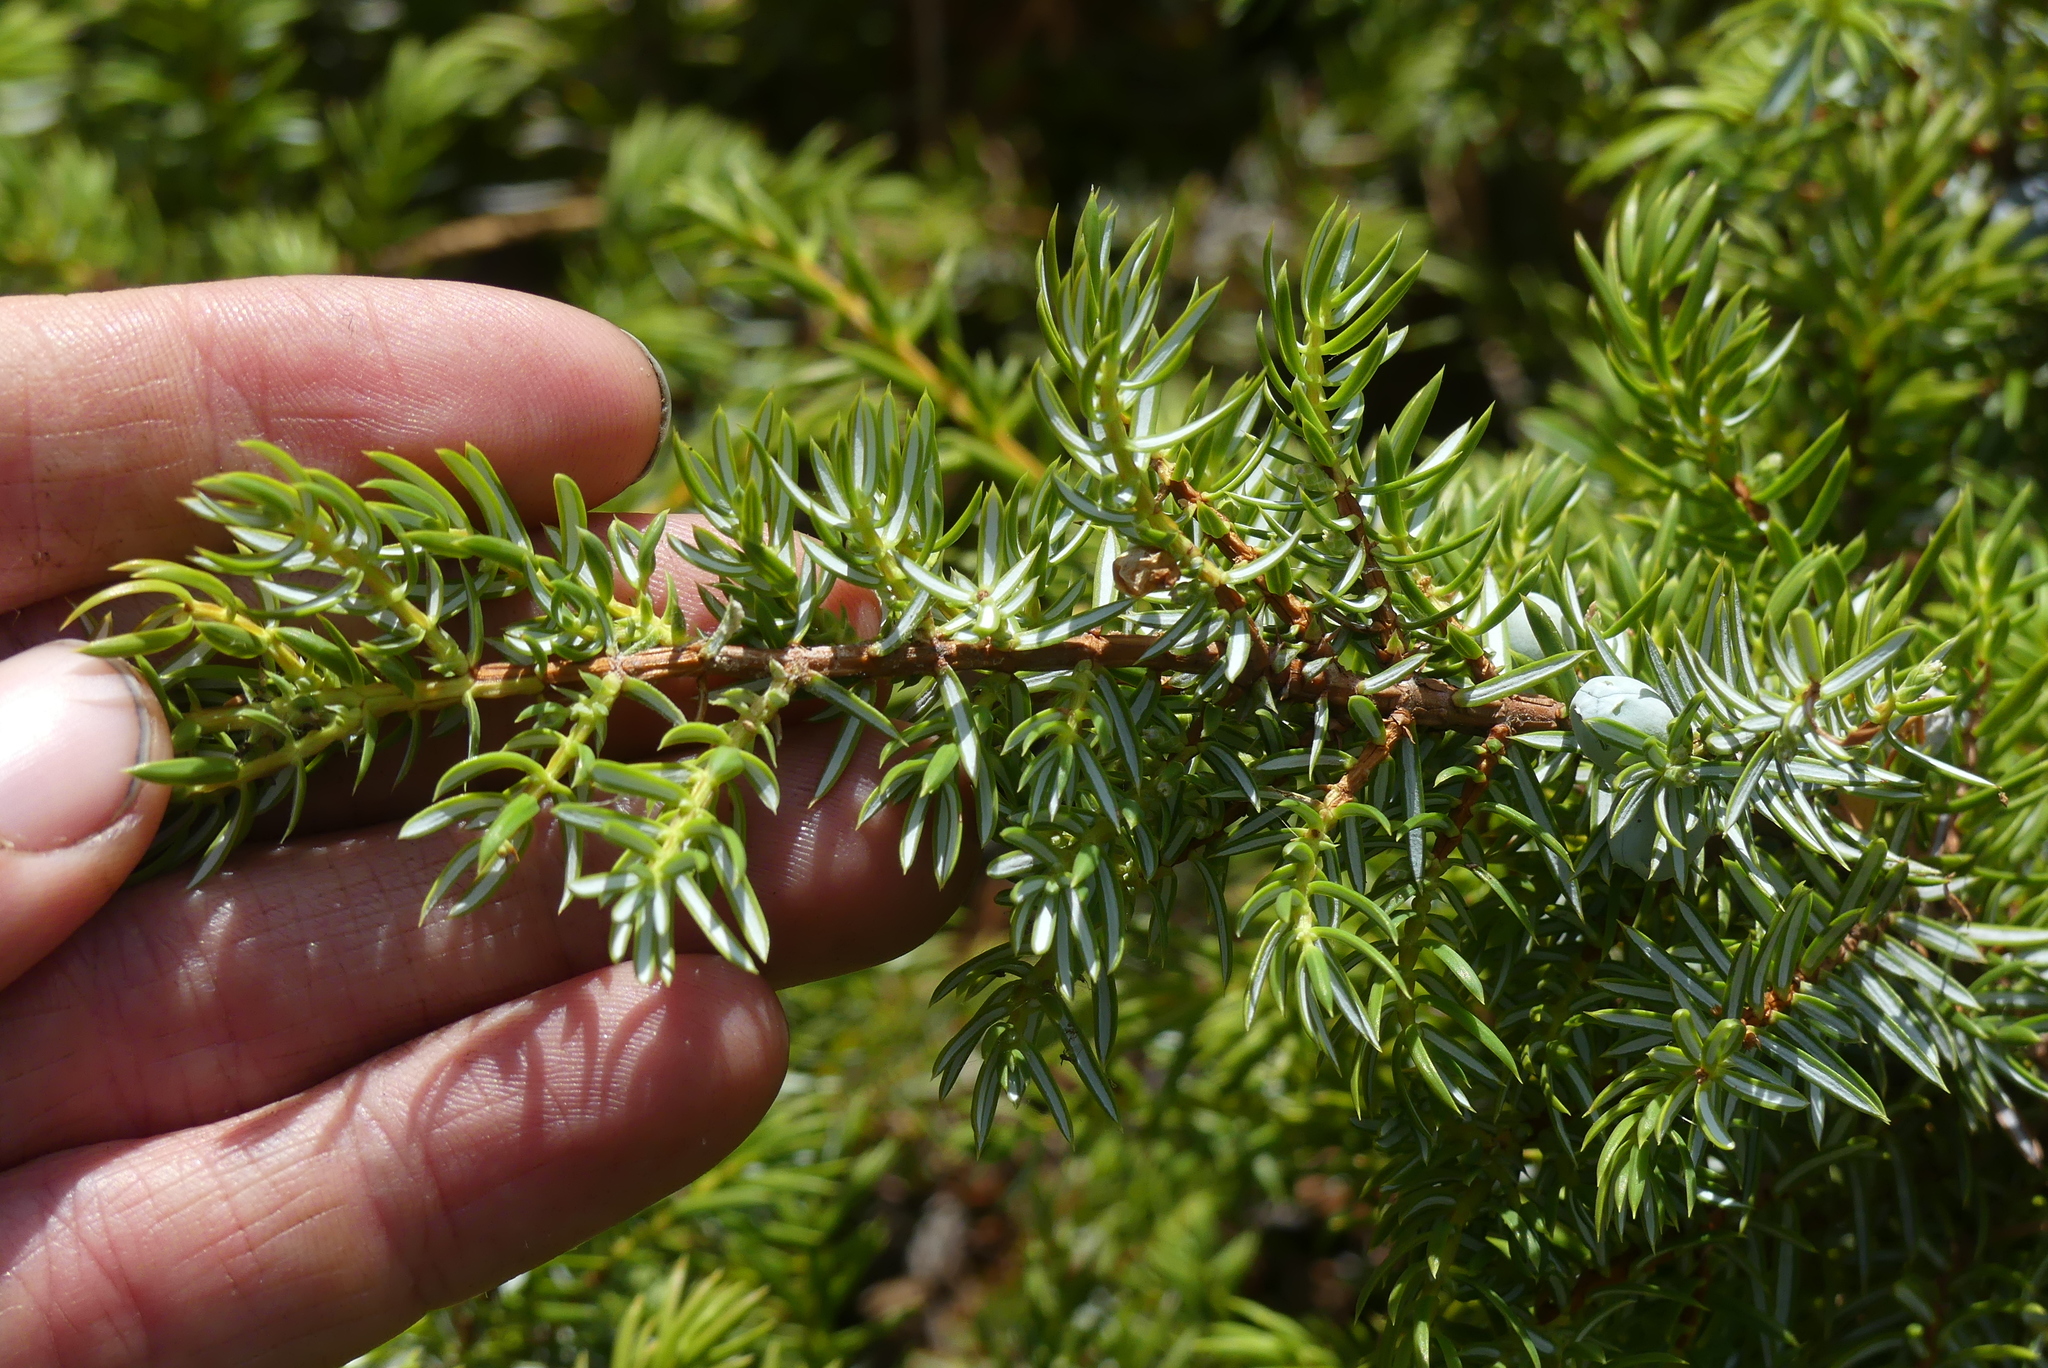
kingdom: Plantae
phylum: Tracheophyta
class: Pinopsida
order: Pinales
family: Cupressaceae
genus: Juniperus
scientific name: Juniperus communis
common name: Common juniper
